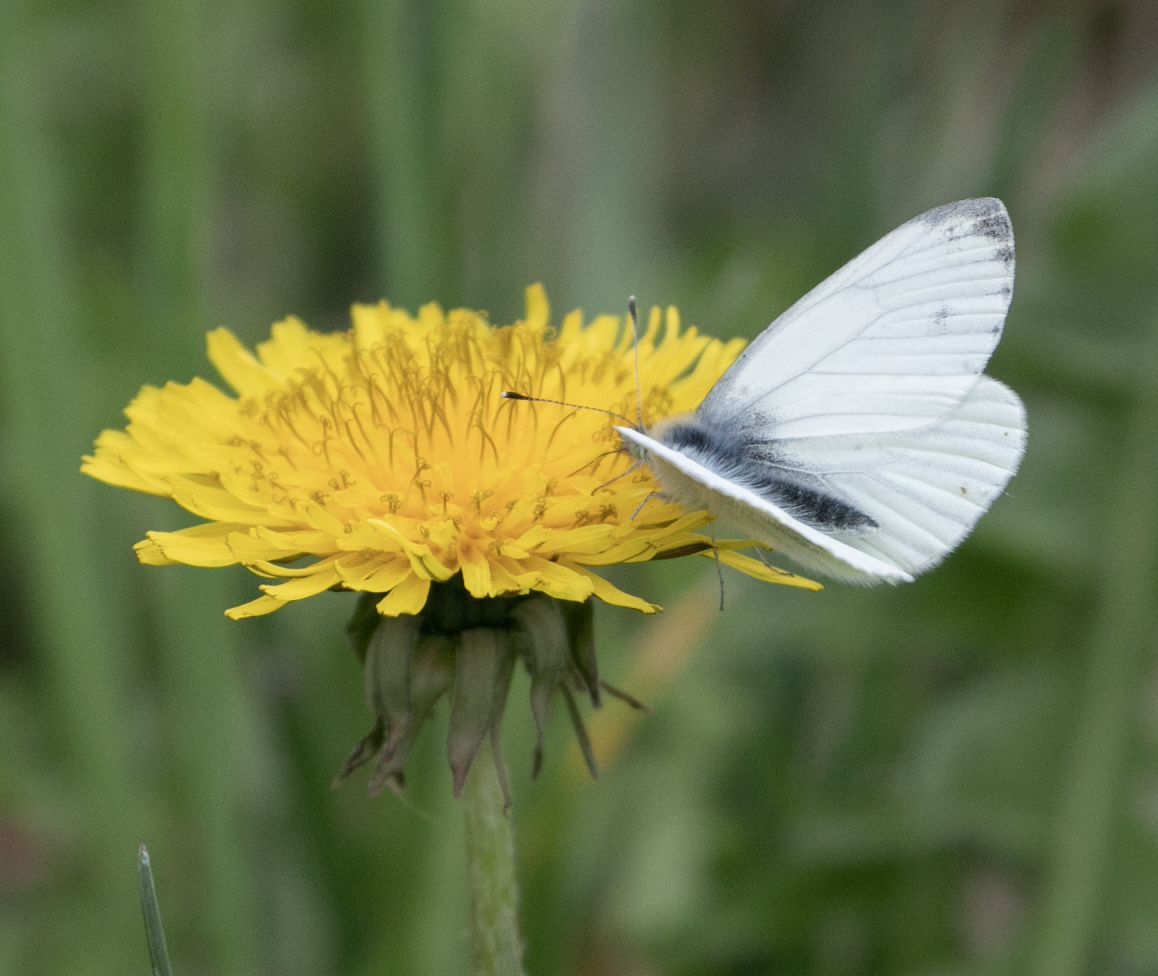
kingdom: Animalia
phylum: Arthropoda
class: Insecta
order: Lepidoptera
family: Pieridae
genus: Pieris
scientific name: Pieris napi
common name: Green-veined white
